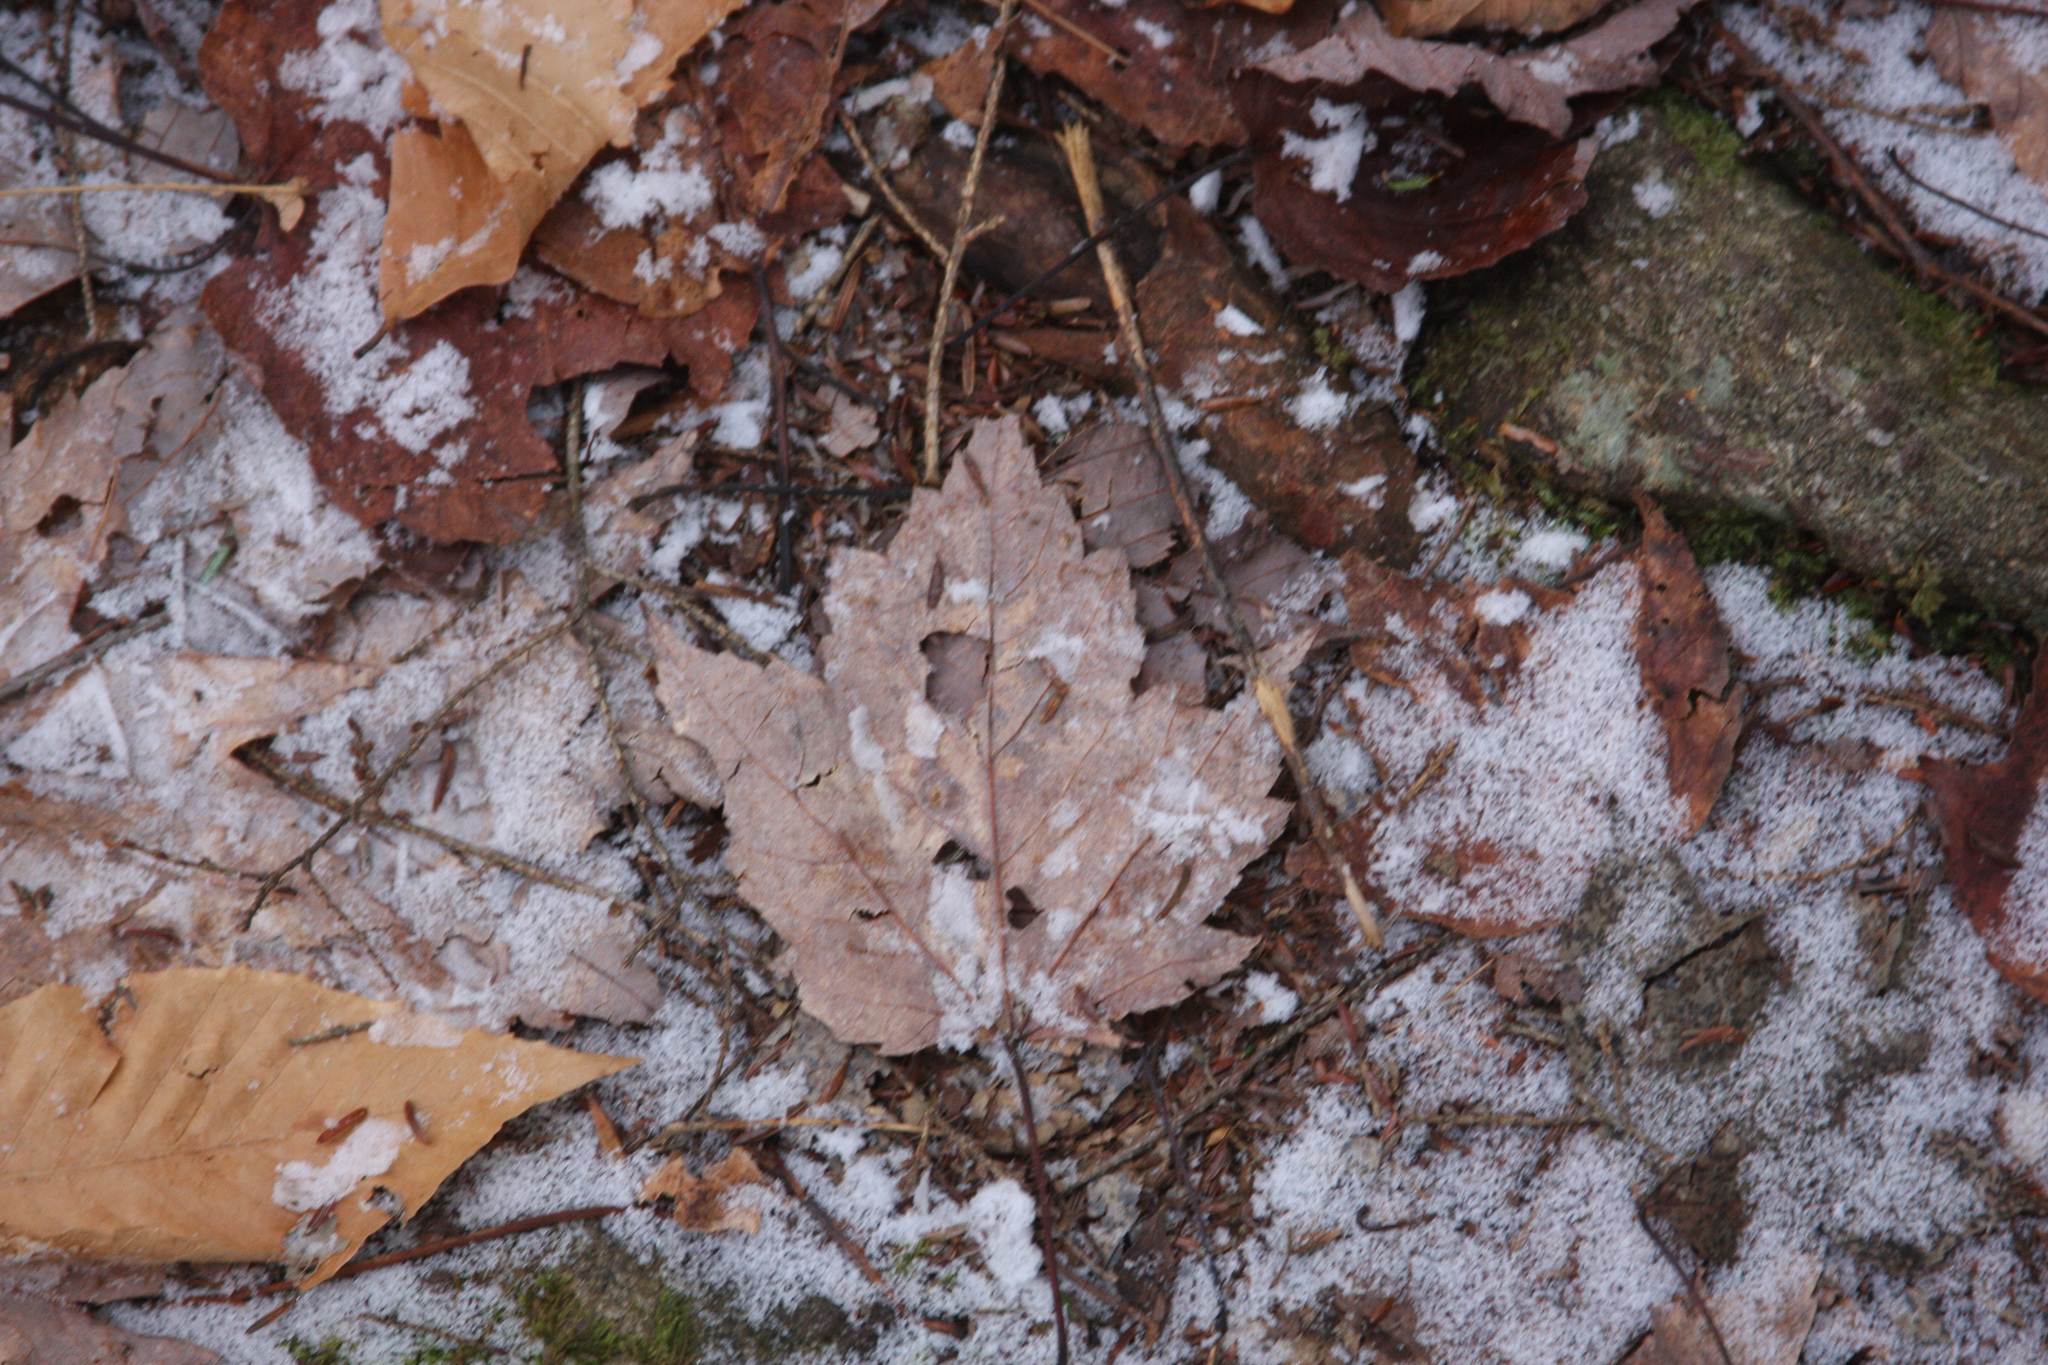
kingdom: Plantae
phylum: Tracheophyta
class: Magnoliopsida
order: Sapindales
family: Sapindaceae
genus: Acer
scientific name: Acer rubrum
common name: Red maple
